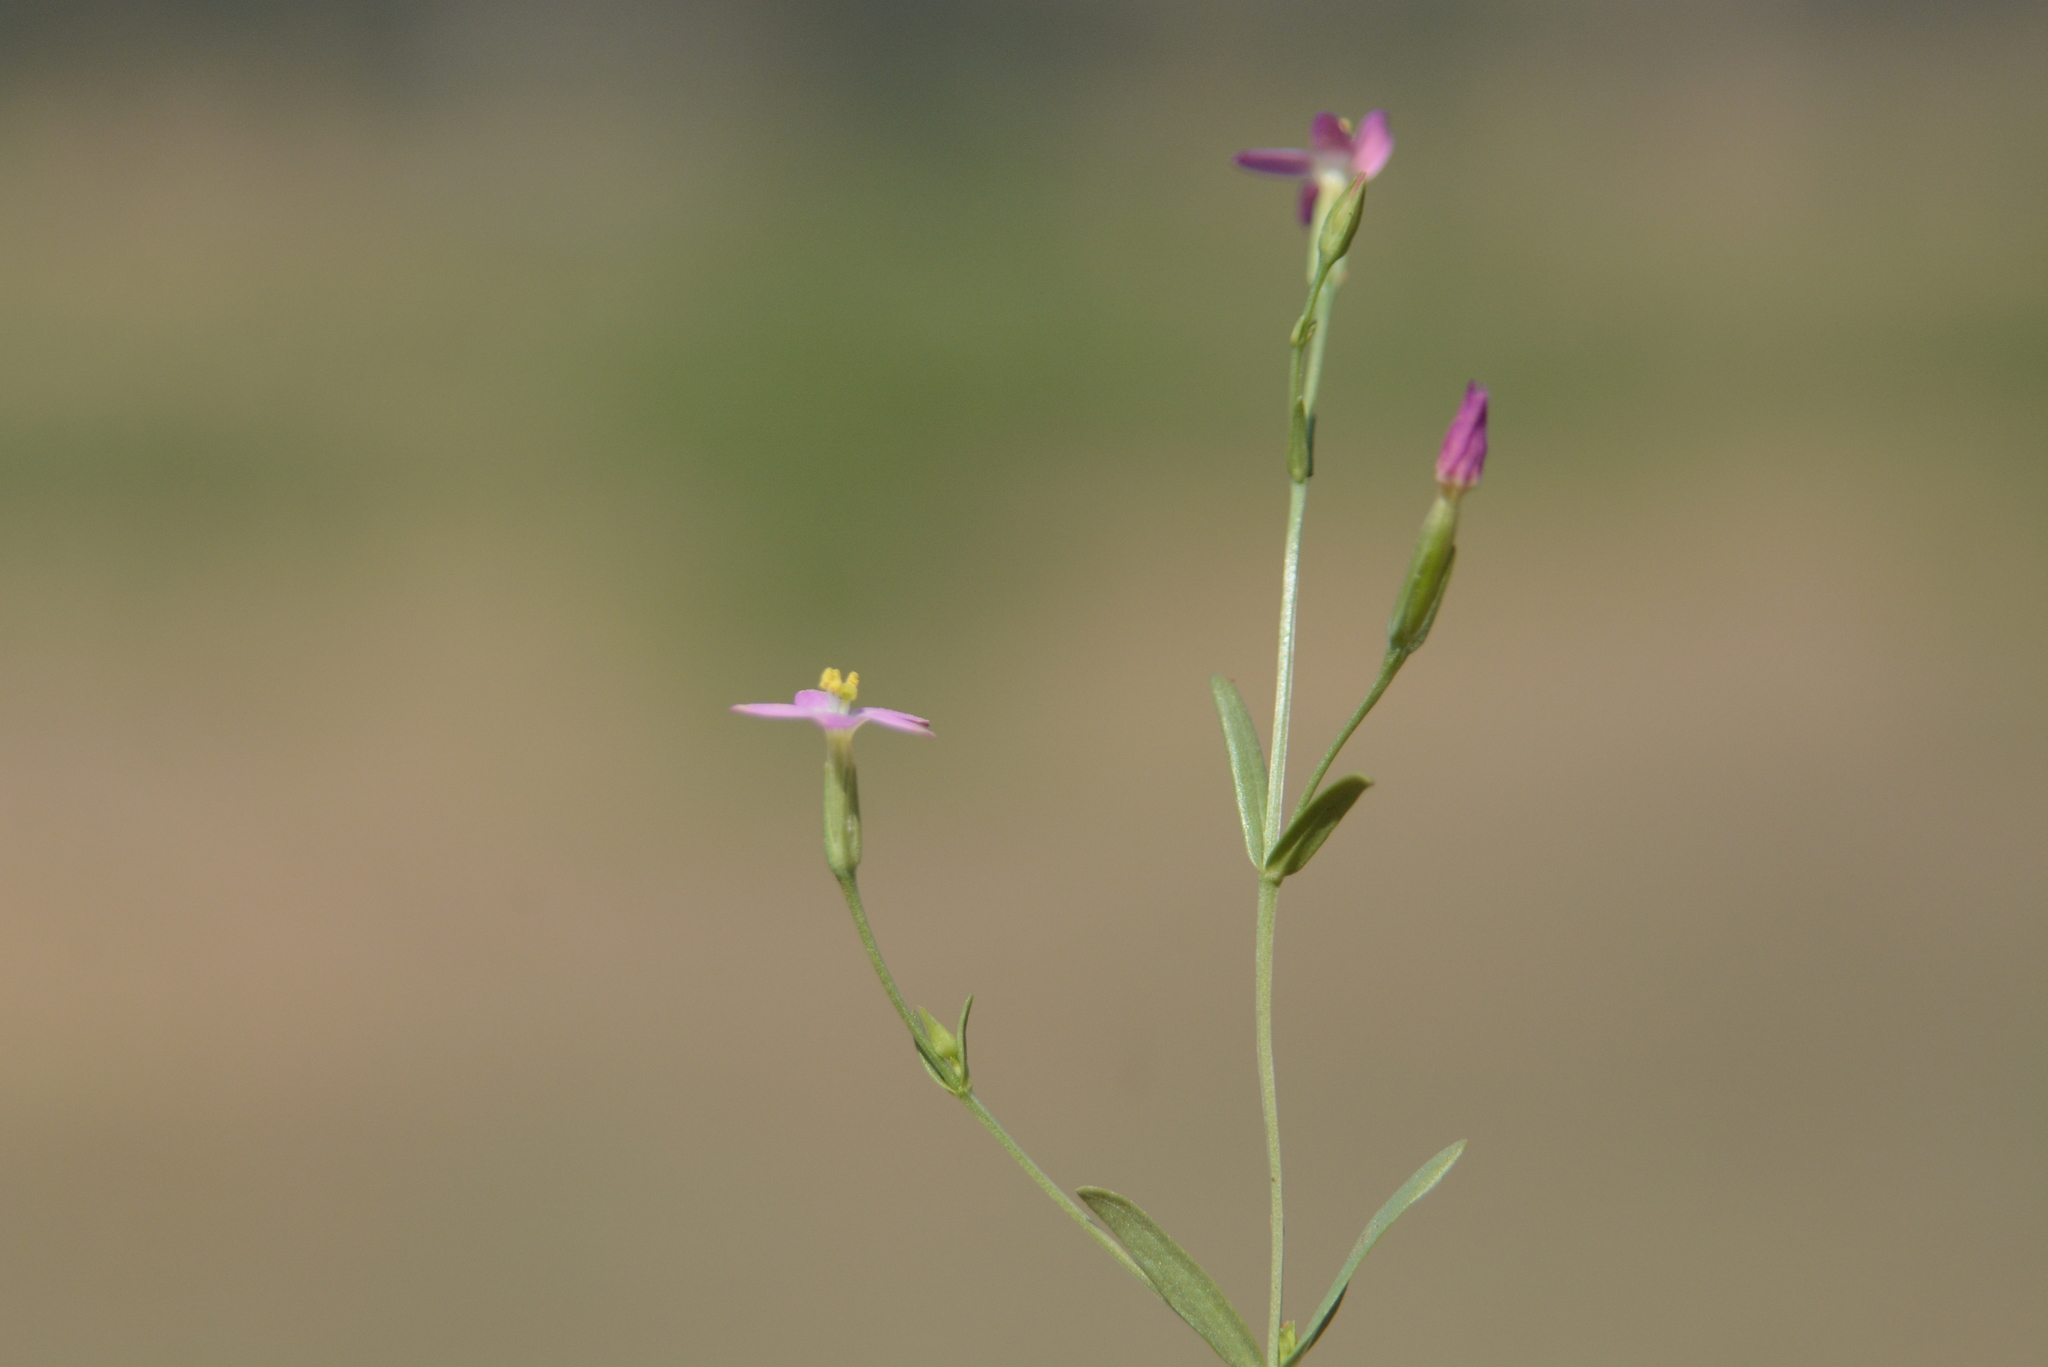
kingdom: Plantae
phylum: Tracheophyta
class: Magnoliopsida
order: Gentianales
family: Gentianaceae
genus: Centaurium
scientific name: Centaurium pulchellum
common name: Lesser centaury
